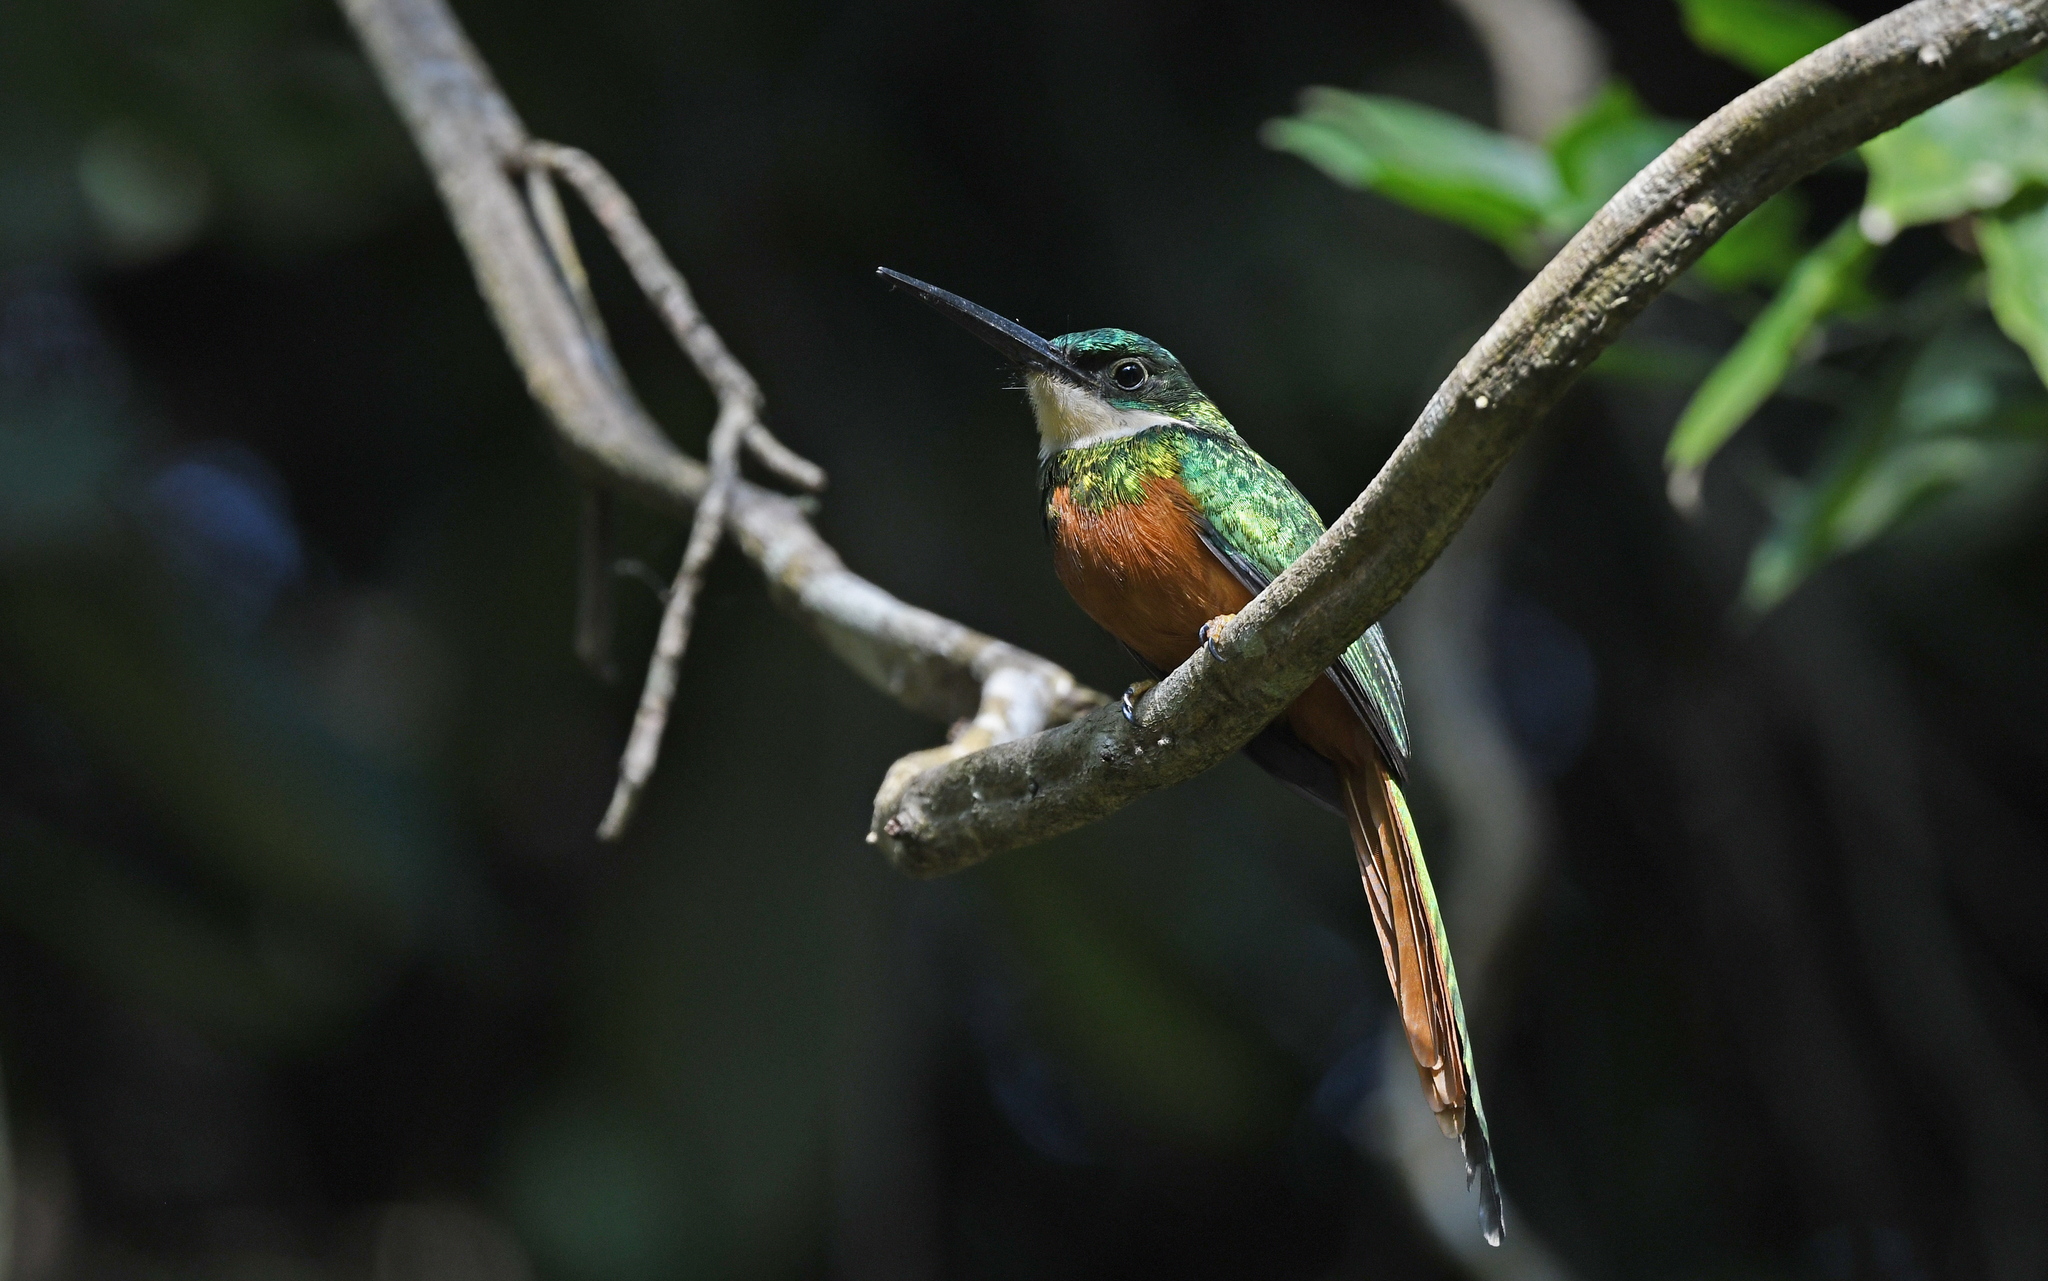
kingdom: Animalia
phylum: Chordata
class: Aves
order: Piciformes
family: Galbulidae
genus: Galbula
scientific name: Galbula ruficauda
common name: Rufous-tailed jacamar
